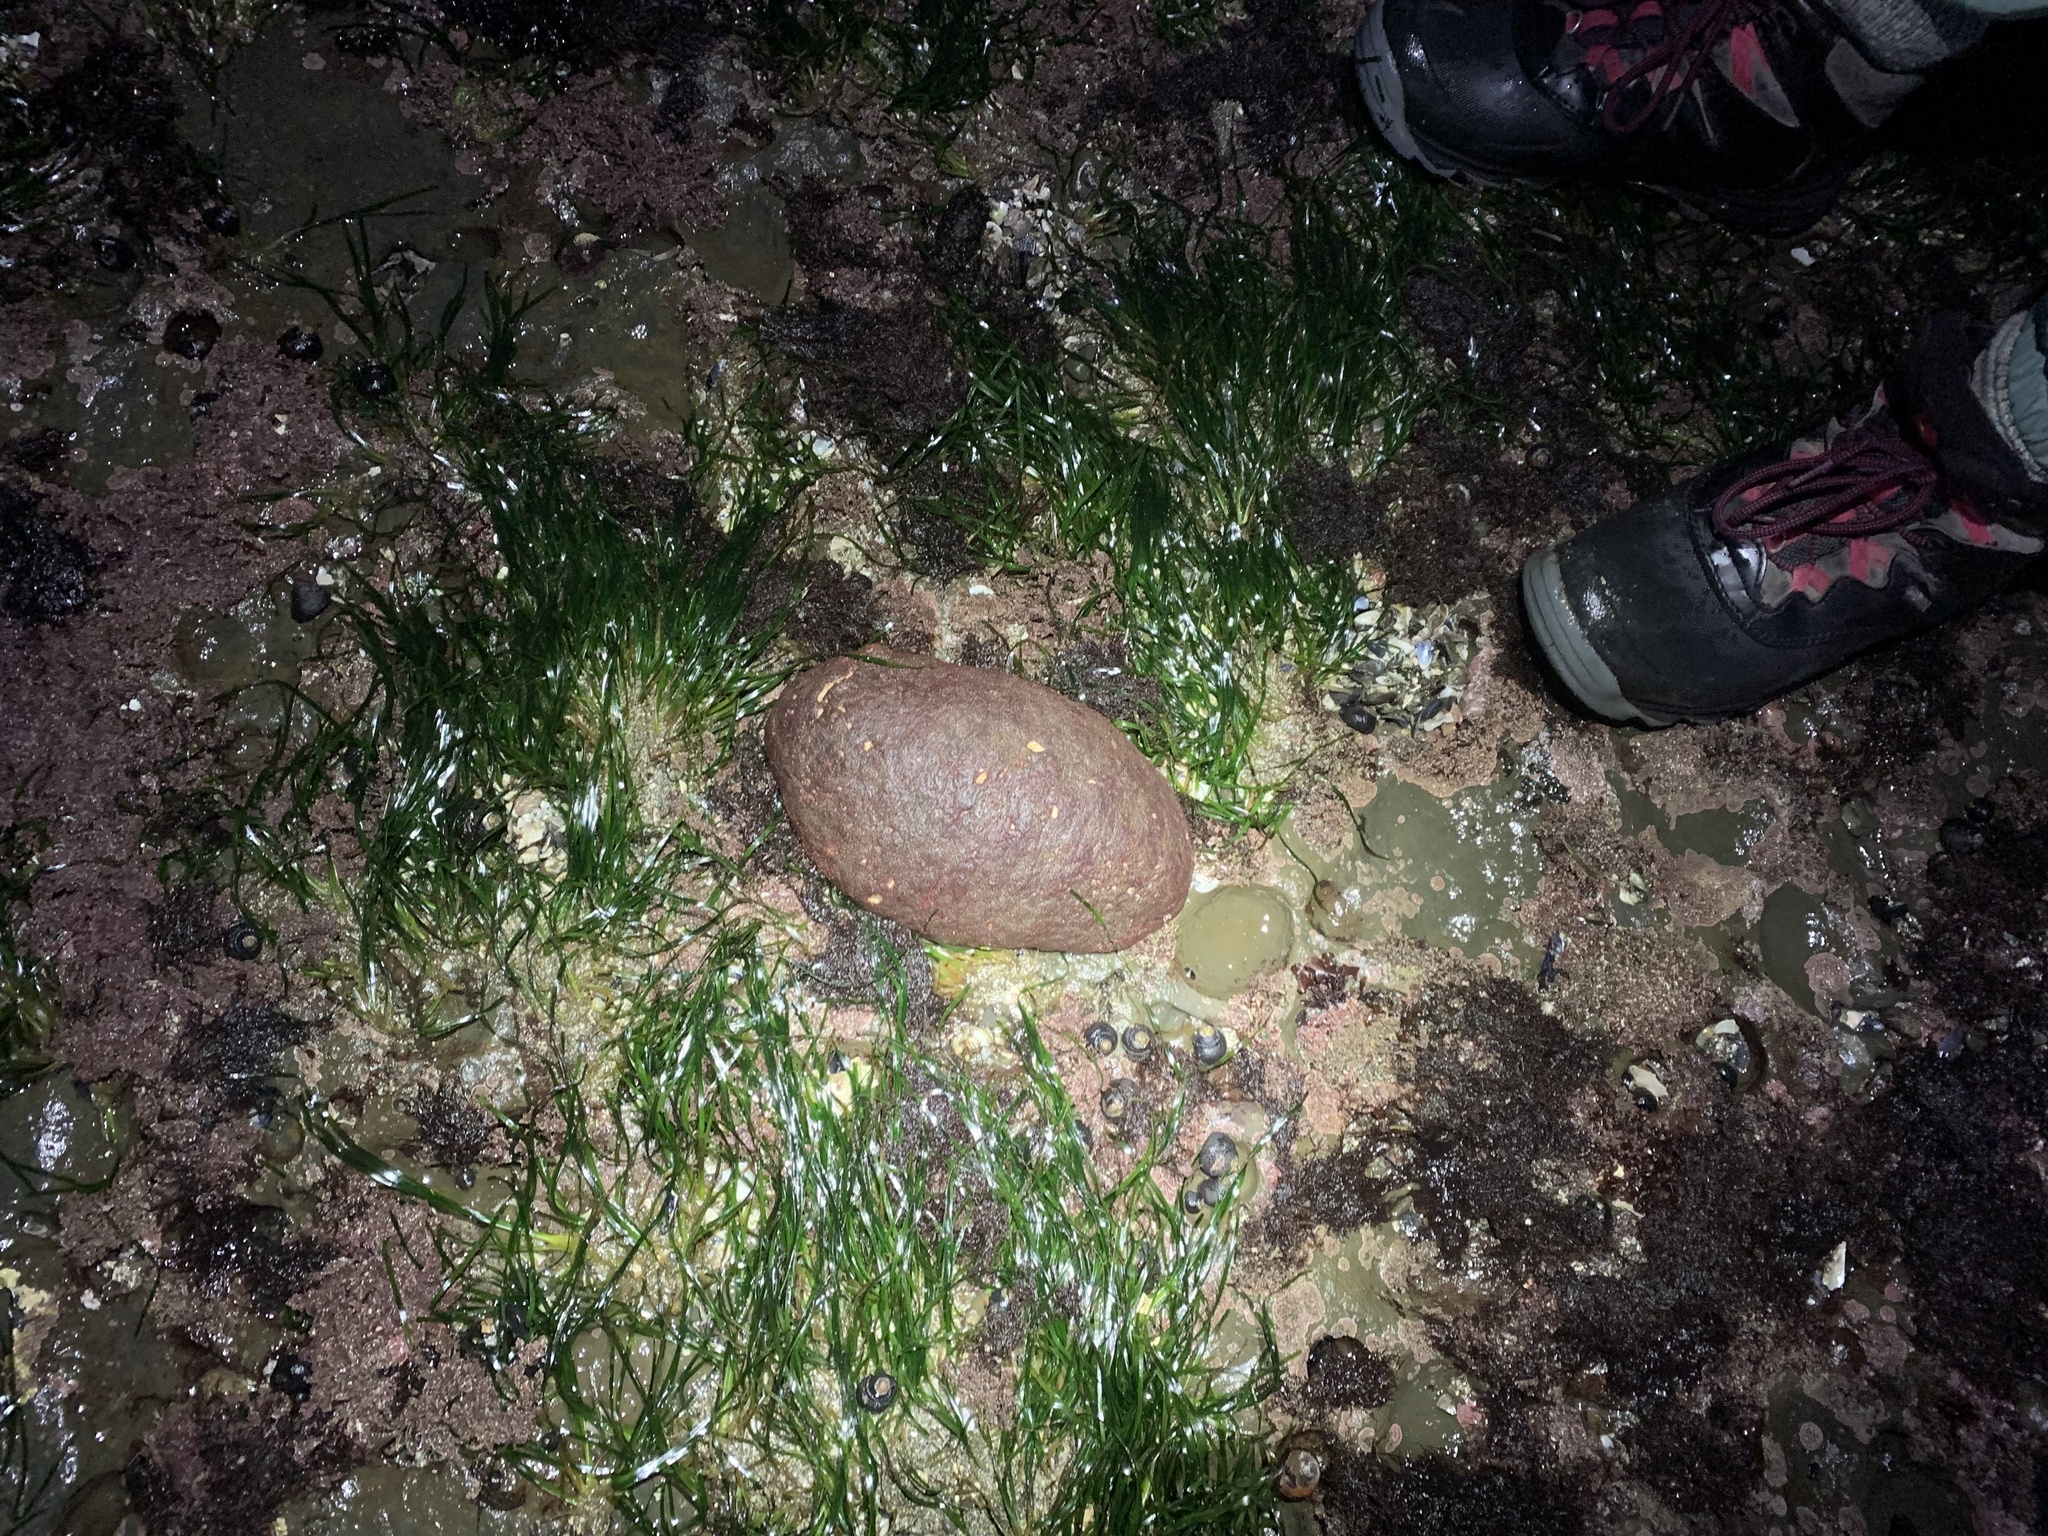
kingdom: Animalia
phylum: Mollusca
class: Polyplacophora
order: Chitonida
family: Acanthochitonidae
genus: Cryptochiton
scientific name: Cryptochiton stelleri
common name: Giant pacific chiton
